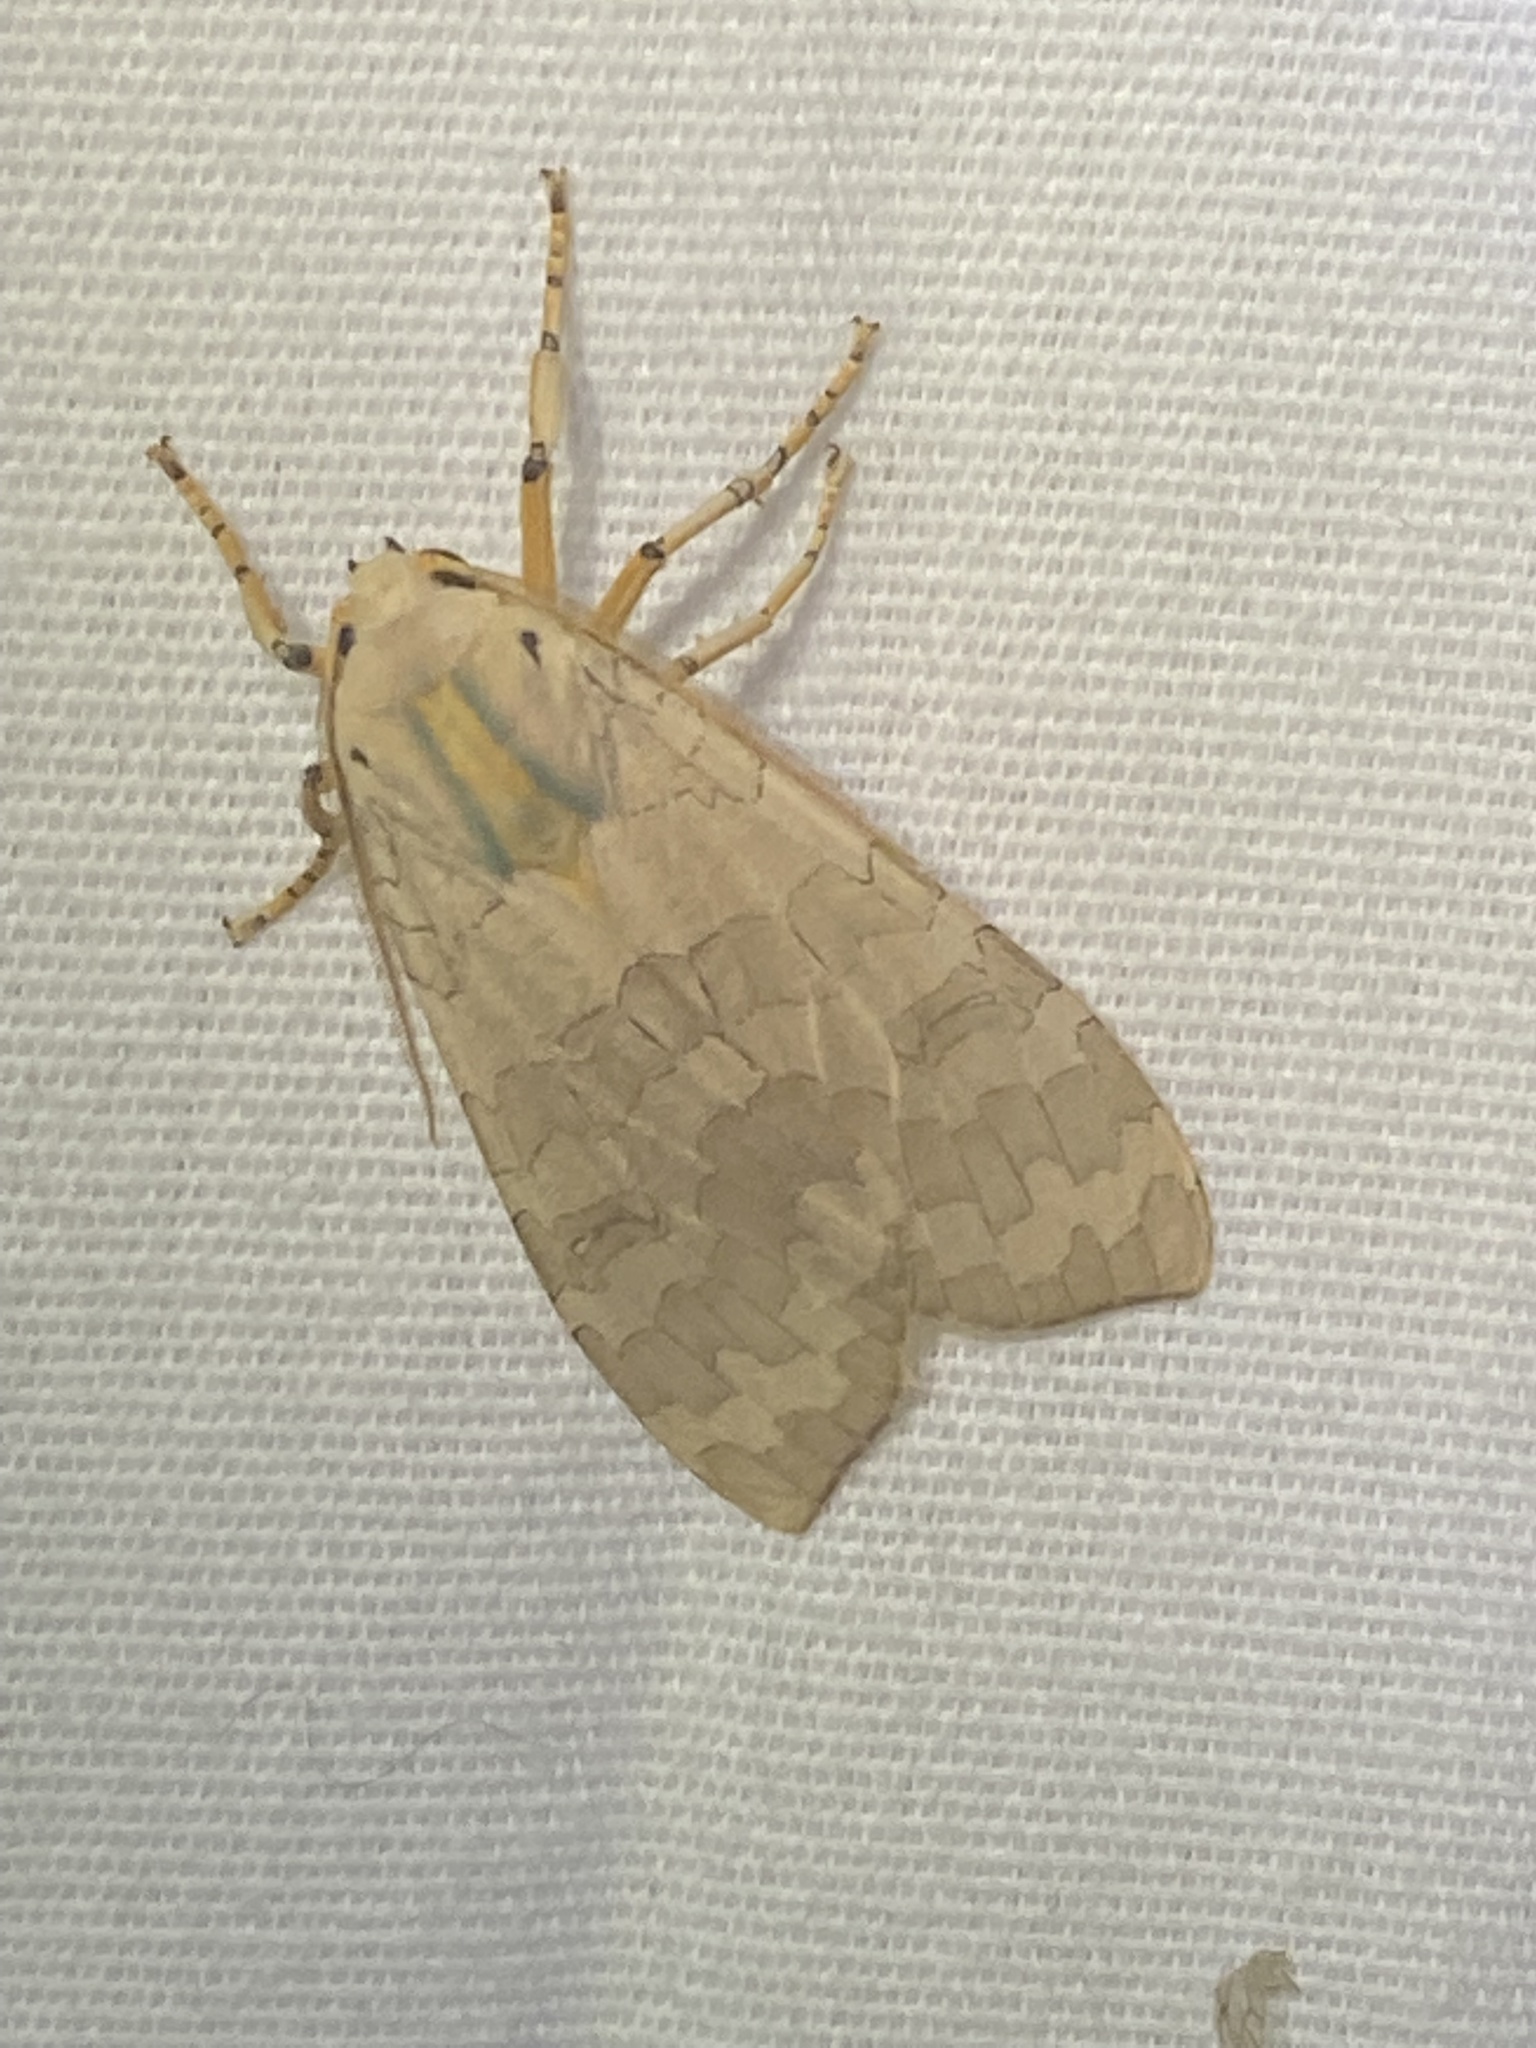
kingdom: Animalia
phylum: Arthropoda
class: Insecta
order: Lepidoptera
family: Erebidae
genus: Halysidota
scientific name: Halysidota
